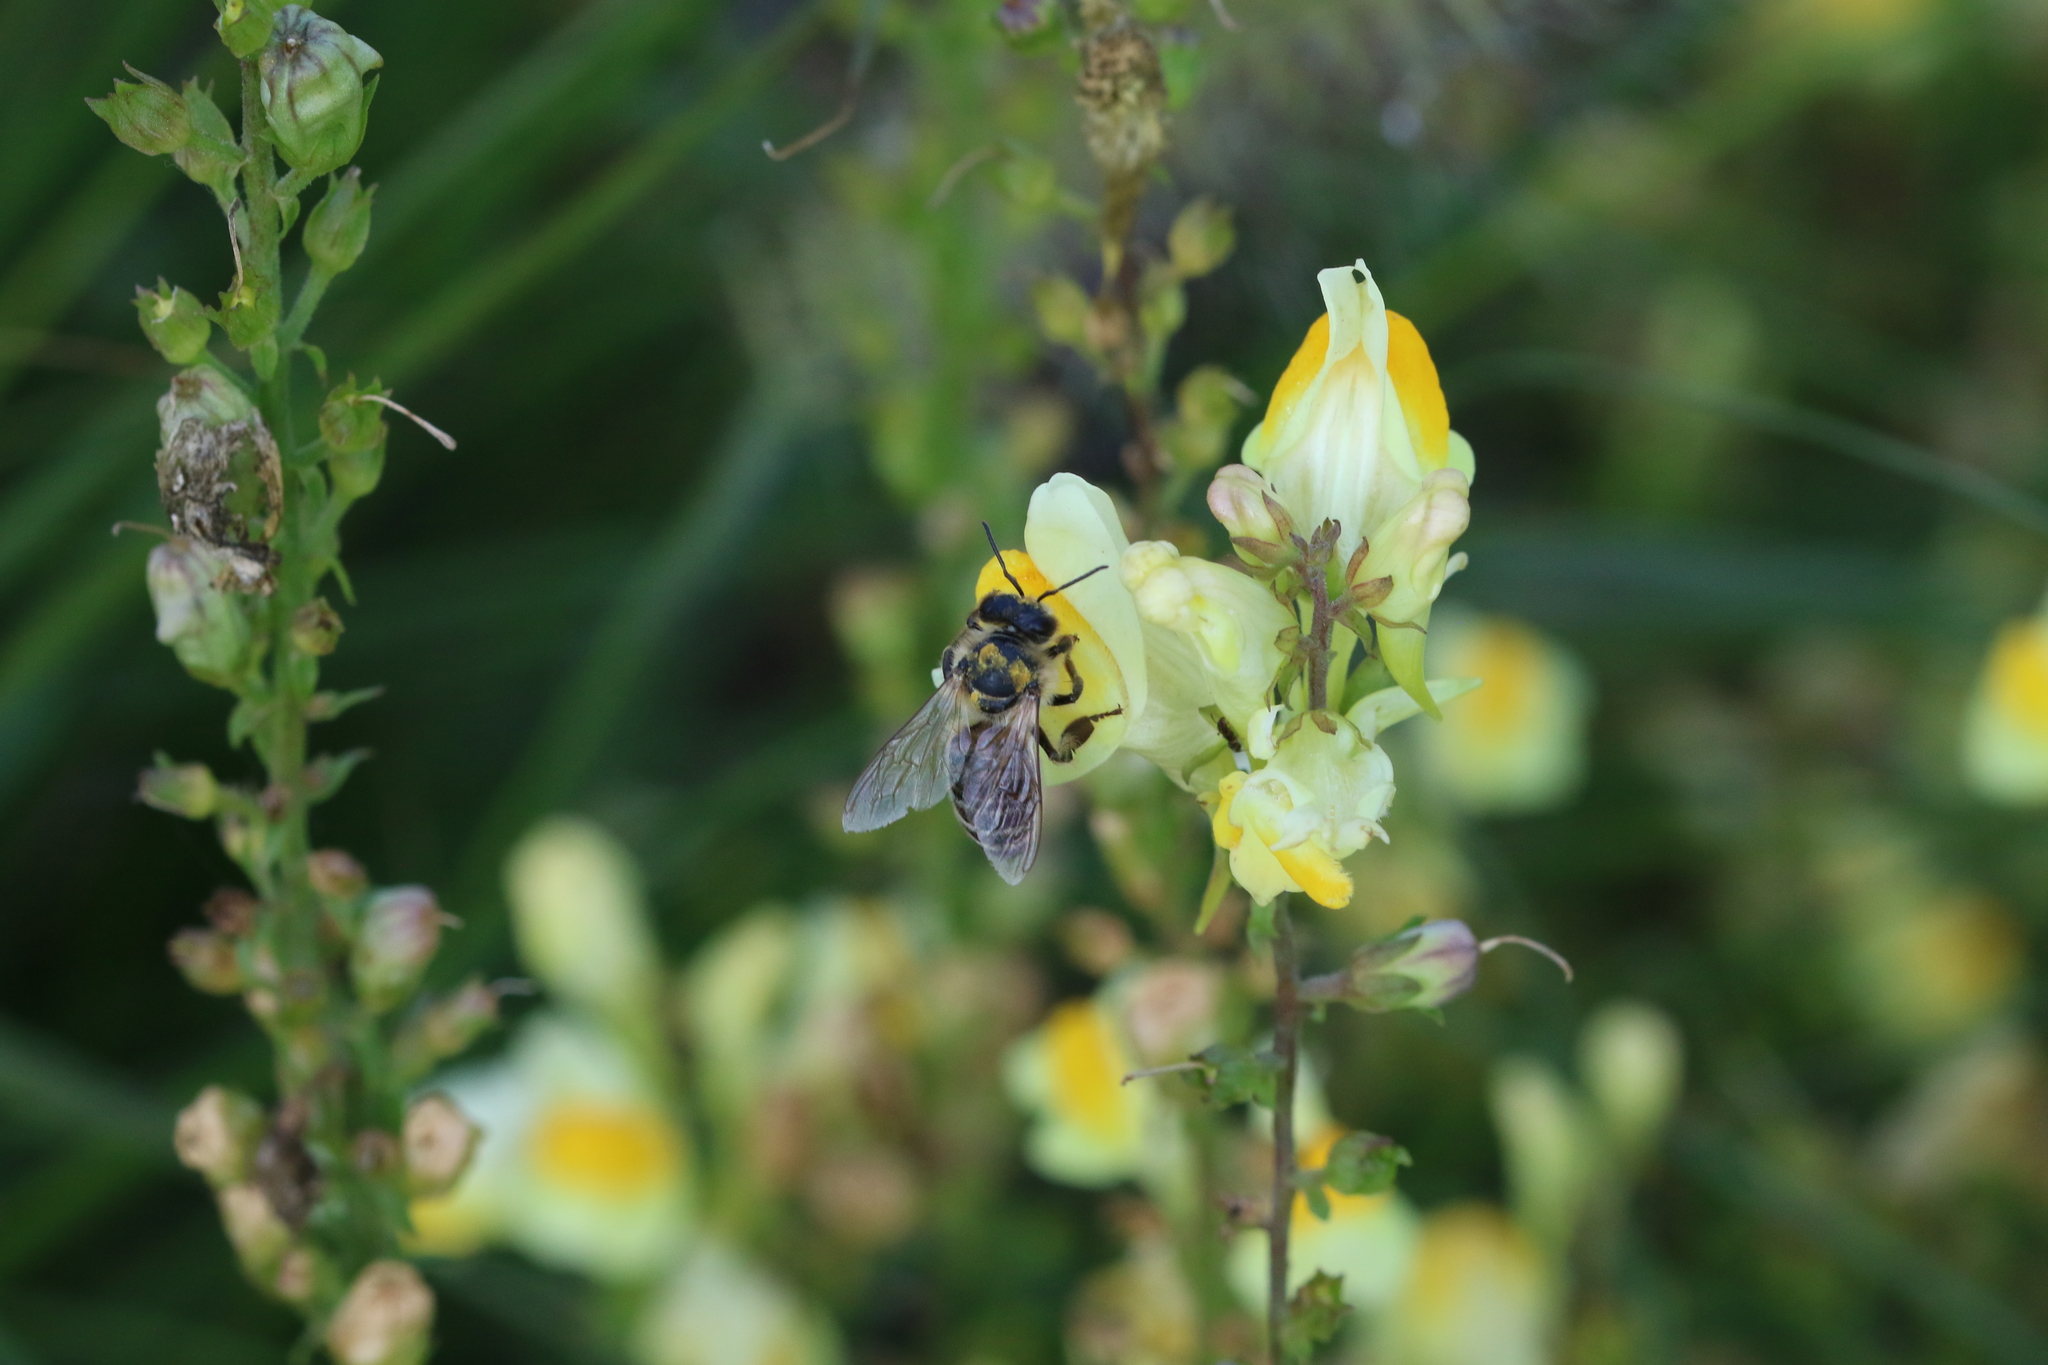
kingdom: Animalia
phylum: Arthropoda
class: Insecta
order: Hymenoptera
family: Apidae
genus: Apis
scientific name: Apis mellifera
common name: Honey bee
